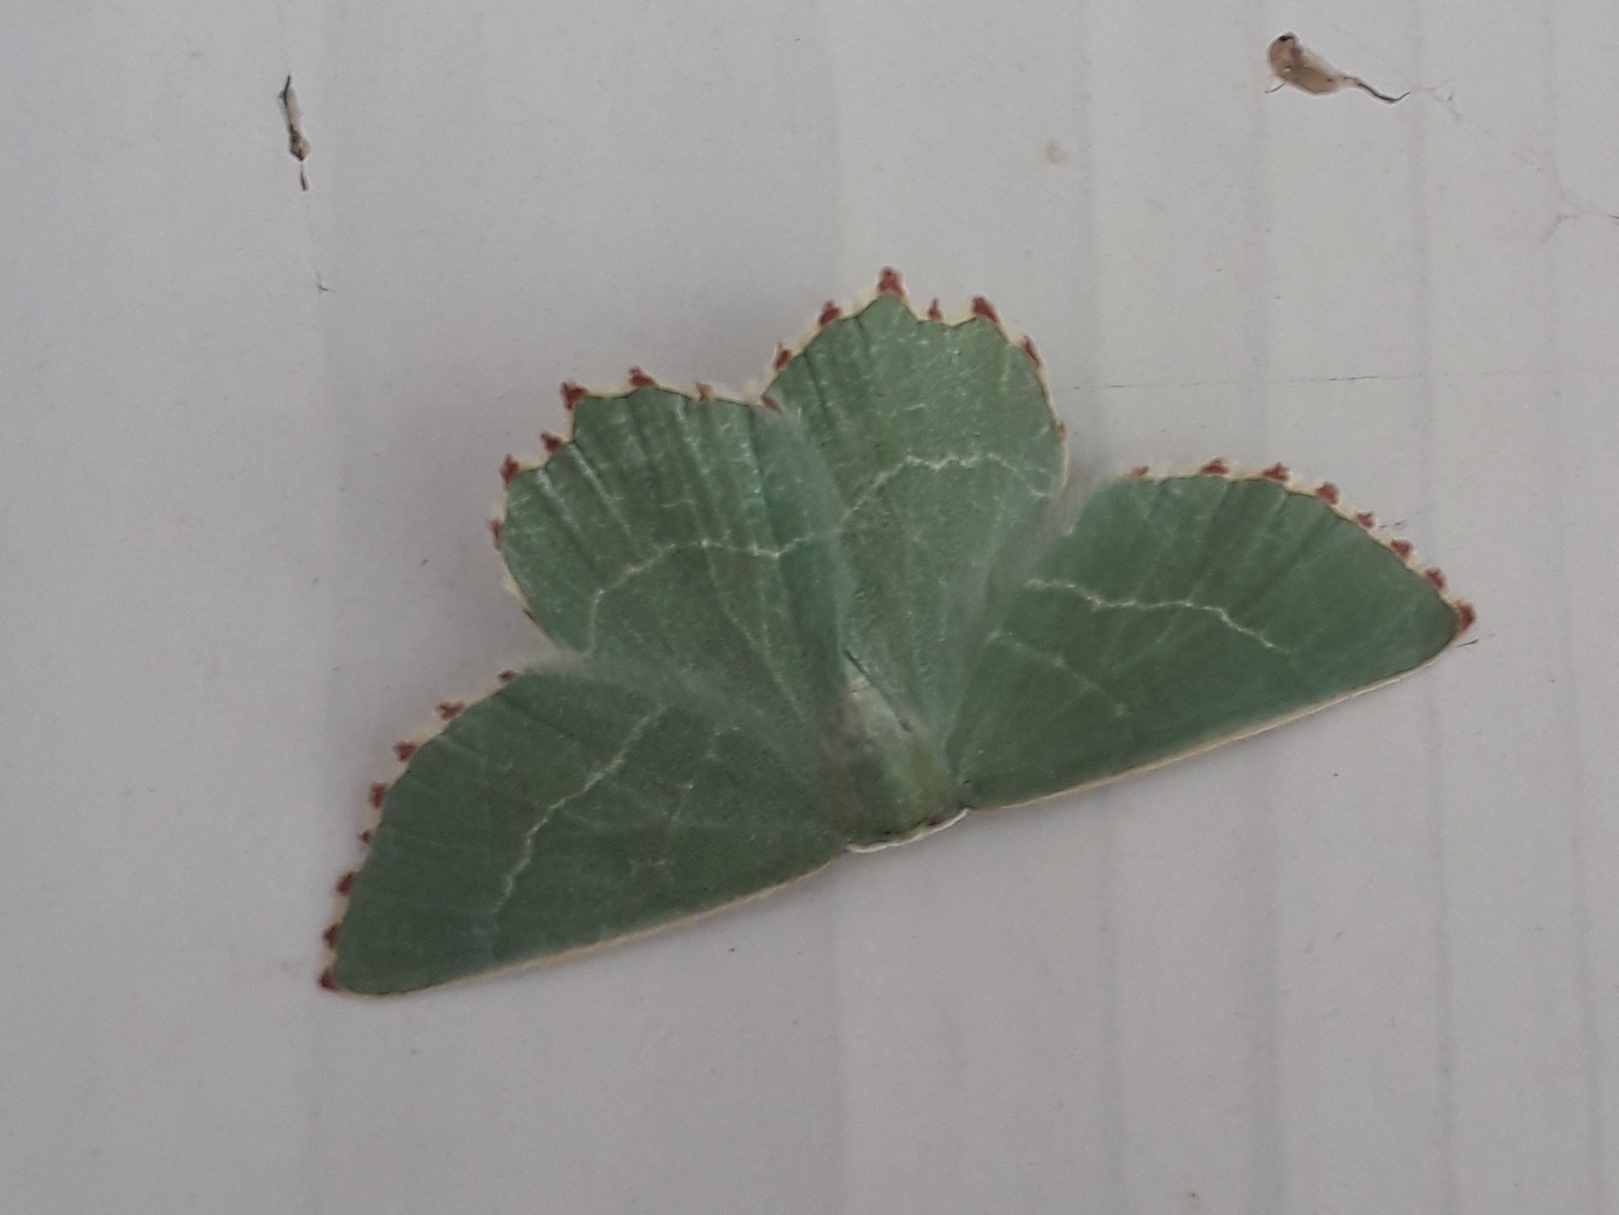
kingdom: Animalia
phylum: Arthropoda
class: Insecta
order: Lepidoptera
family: Geometridae
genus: Thalera
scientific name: Thalera fimbrialis
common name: Sussex emerald
